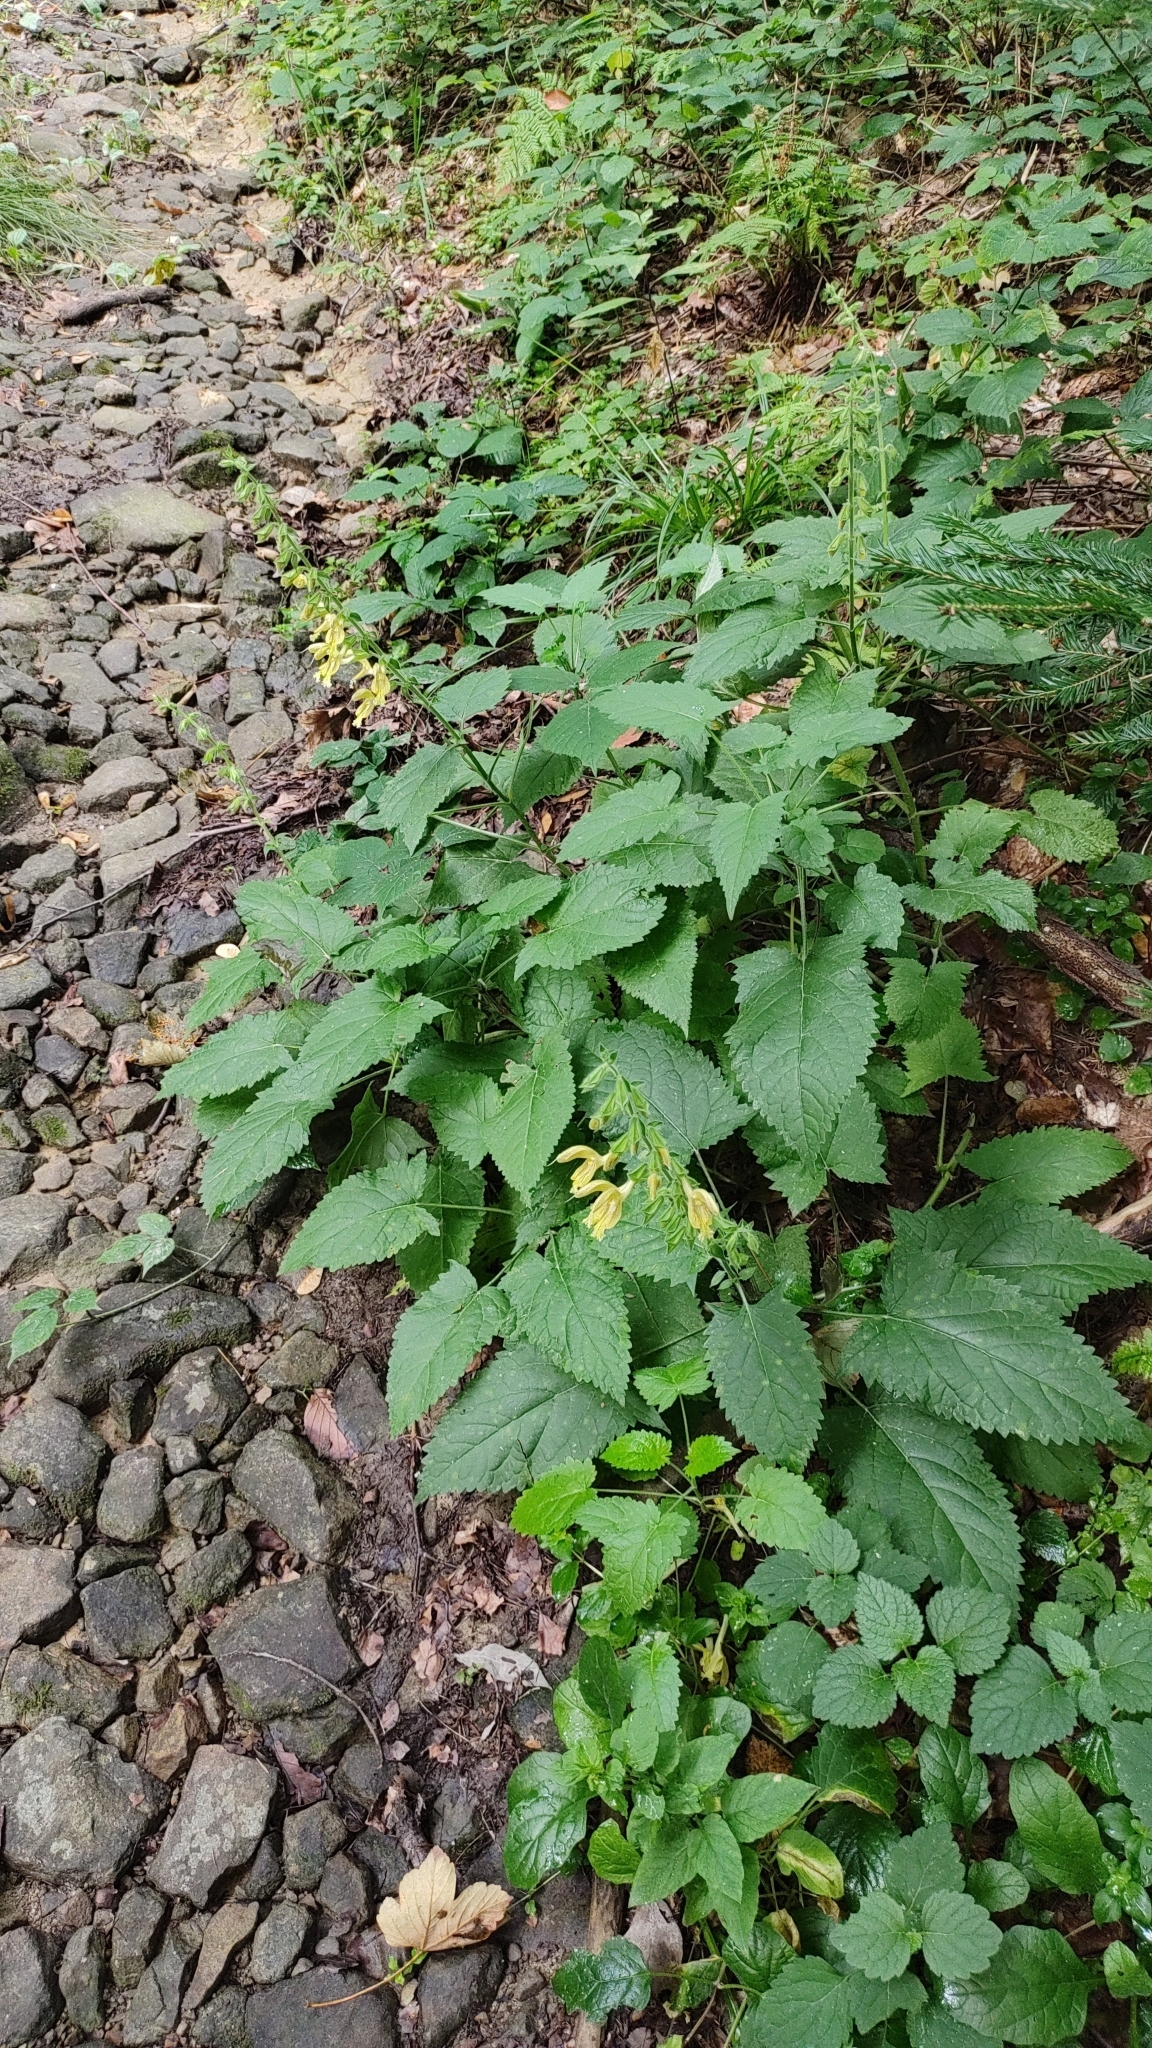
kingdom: Plantae
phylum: Tracheophyta
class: Magnoliopsida
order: Lamiales
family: Lamiaceae
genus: Salvia
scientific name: Salvia glutinosa
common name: Sticky clary
